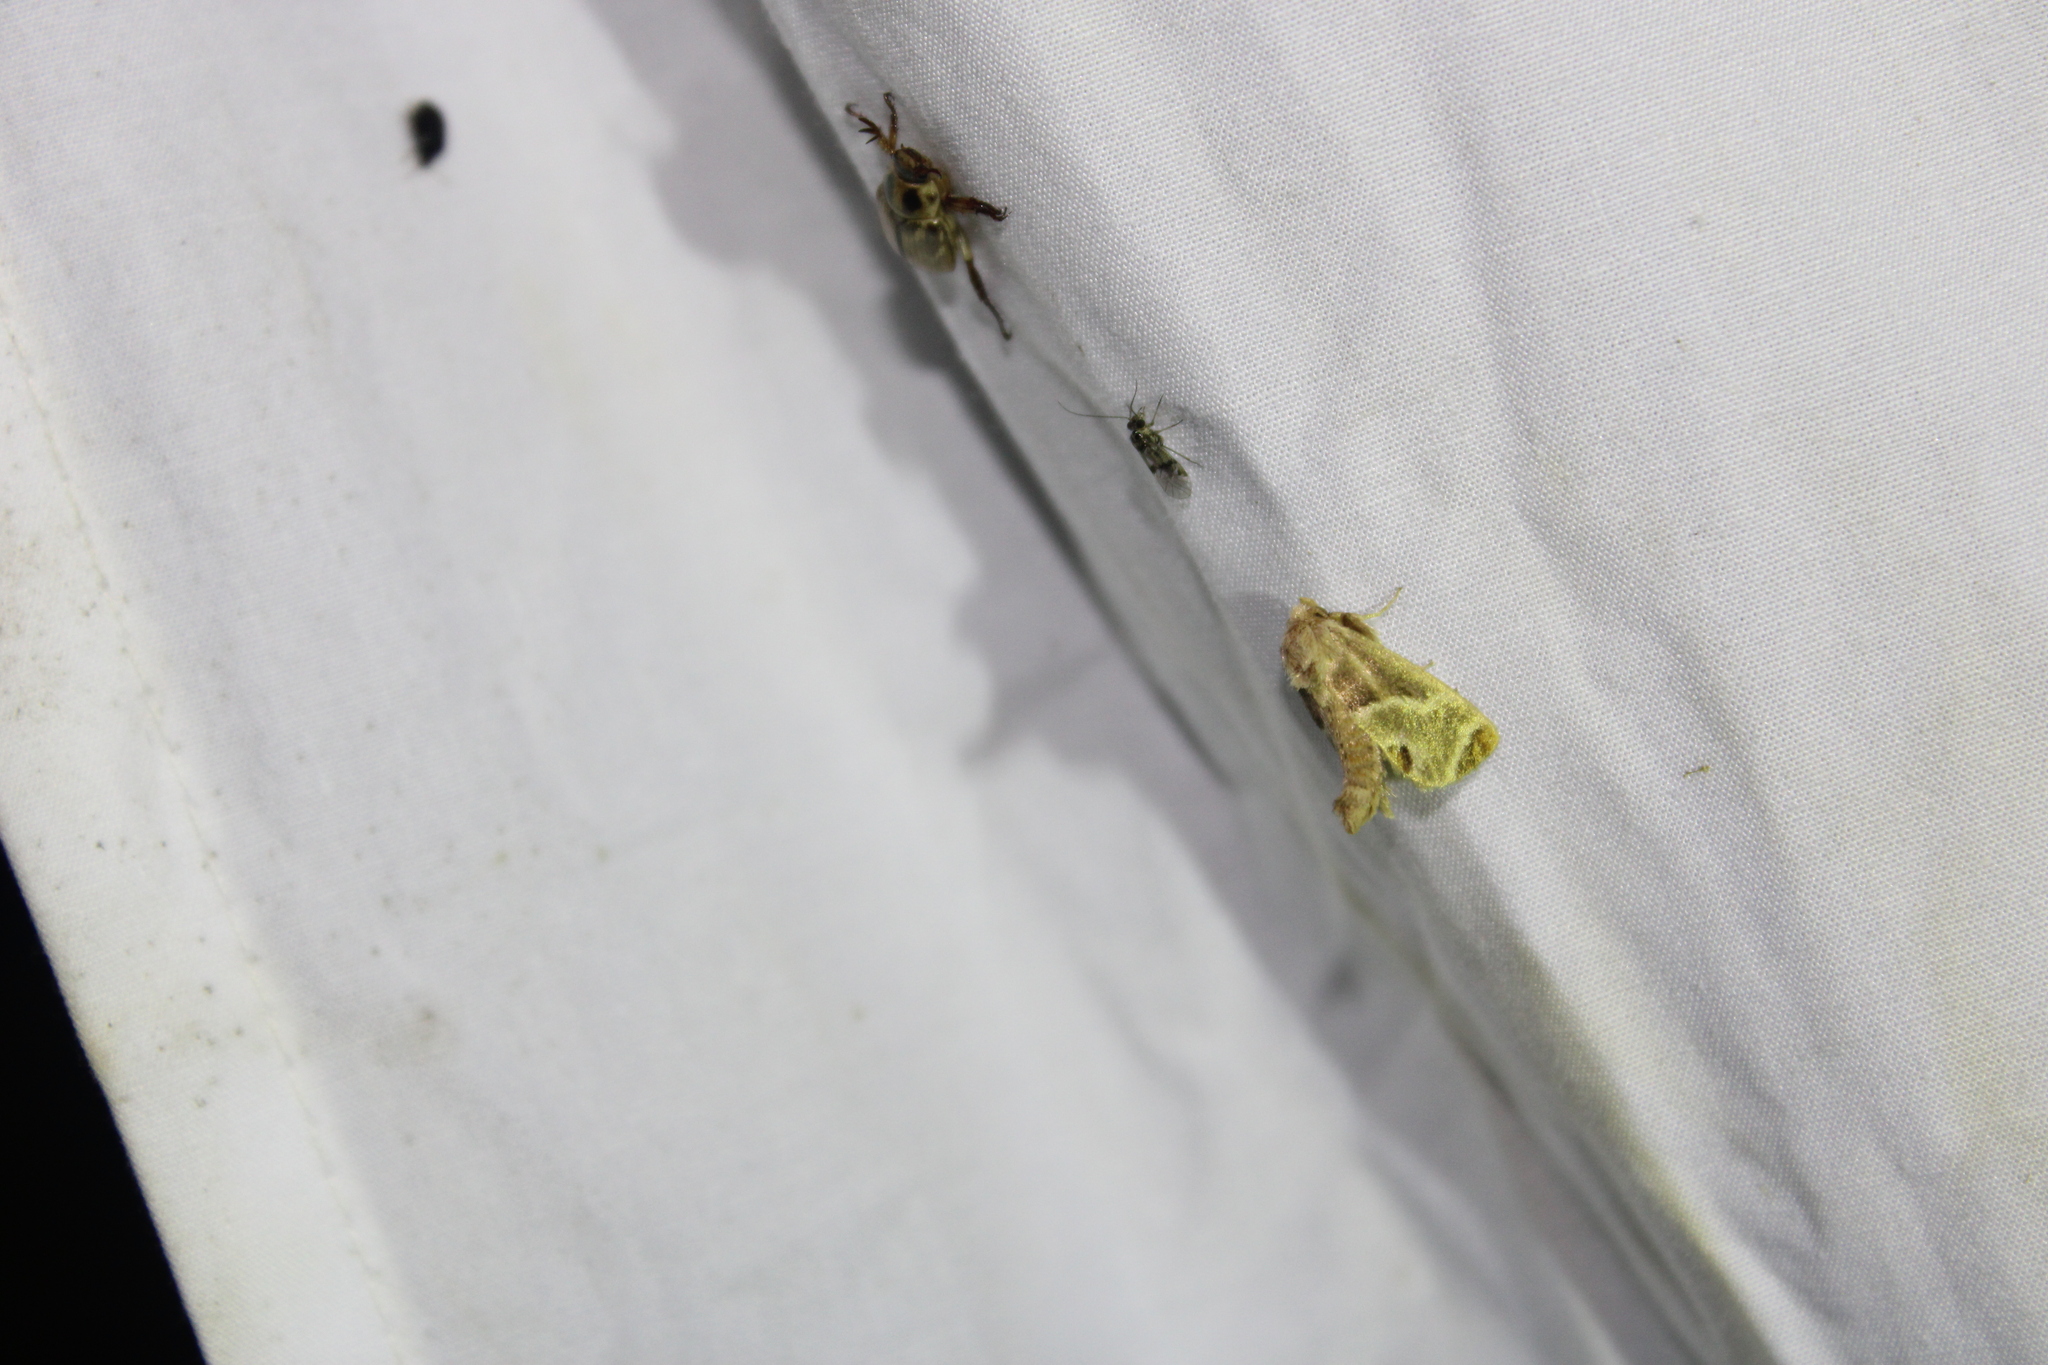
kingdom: Animalia
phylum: Arthropoda
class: Insecta
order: Lepidoptera
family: Limacodidae
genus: Apoda
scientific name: Apoda biguttata
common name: Shagreened slug moth
